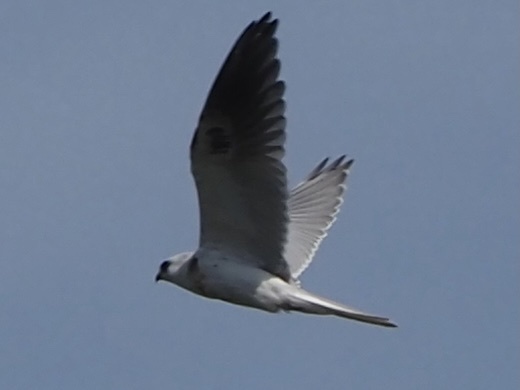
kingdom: Animalia
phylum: Chordata
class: Aves
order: Accipitriformes
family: Accipitridae
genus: Elanus
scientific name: Elanus leucurus
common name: White-tailed kite
